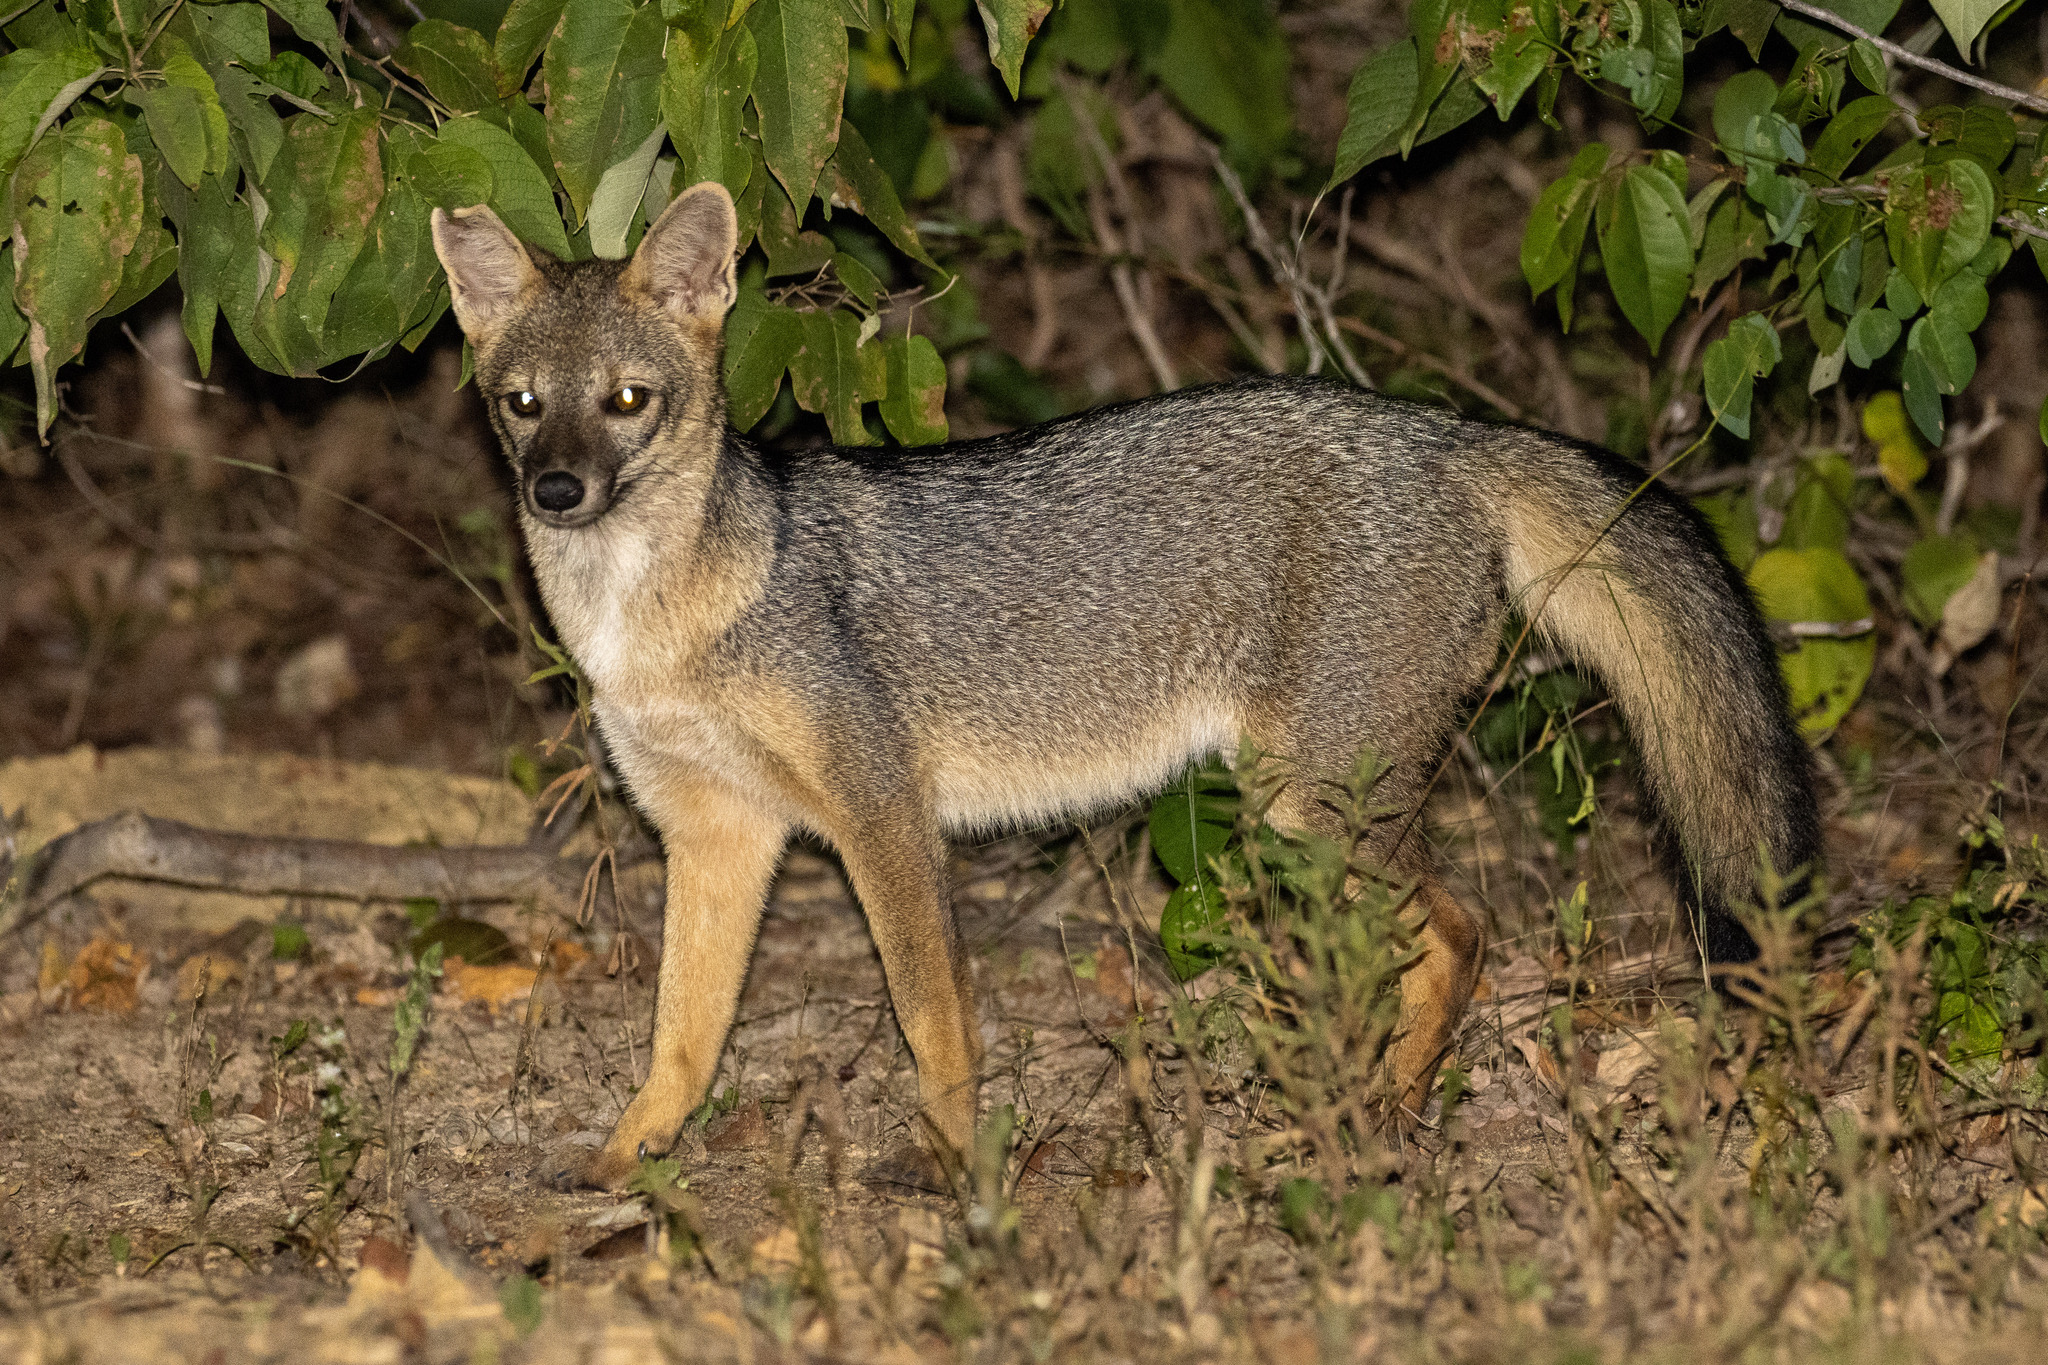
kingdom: Animalia
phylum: Chordata
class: Mammalia
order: Carnivora
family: Canidae
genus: Cerdocyon
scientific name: Cerdocyon thous
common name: Crab-eating fox
